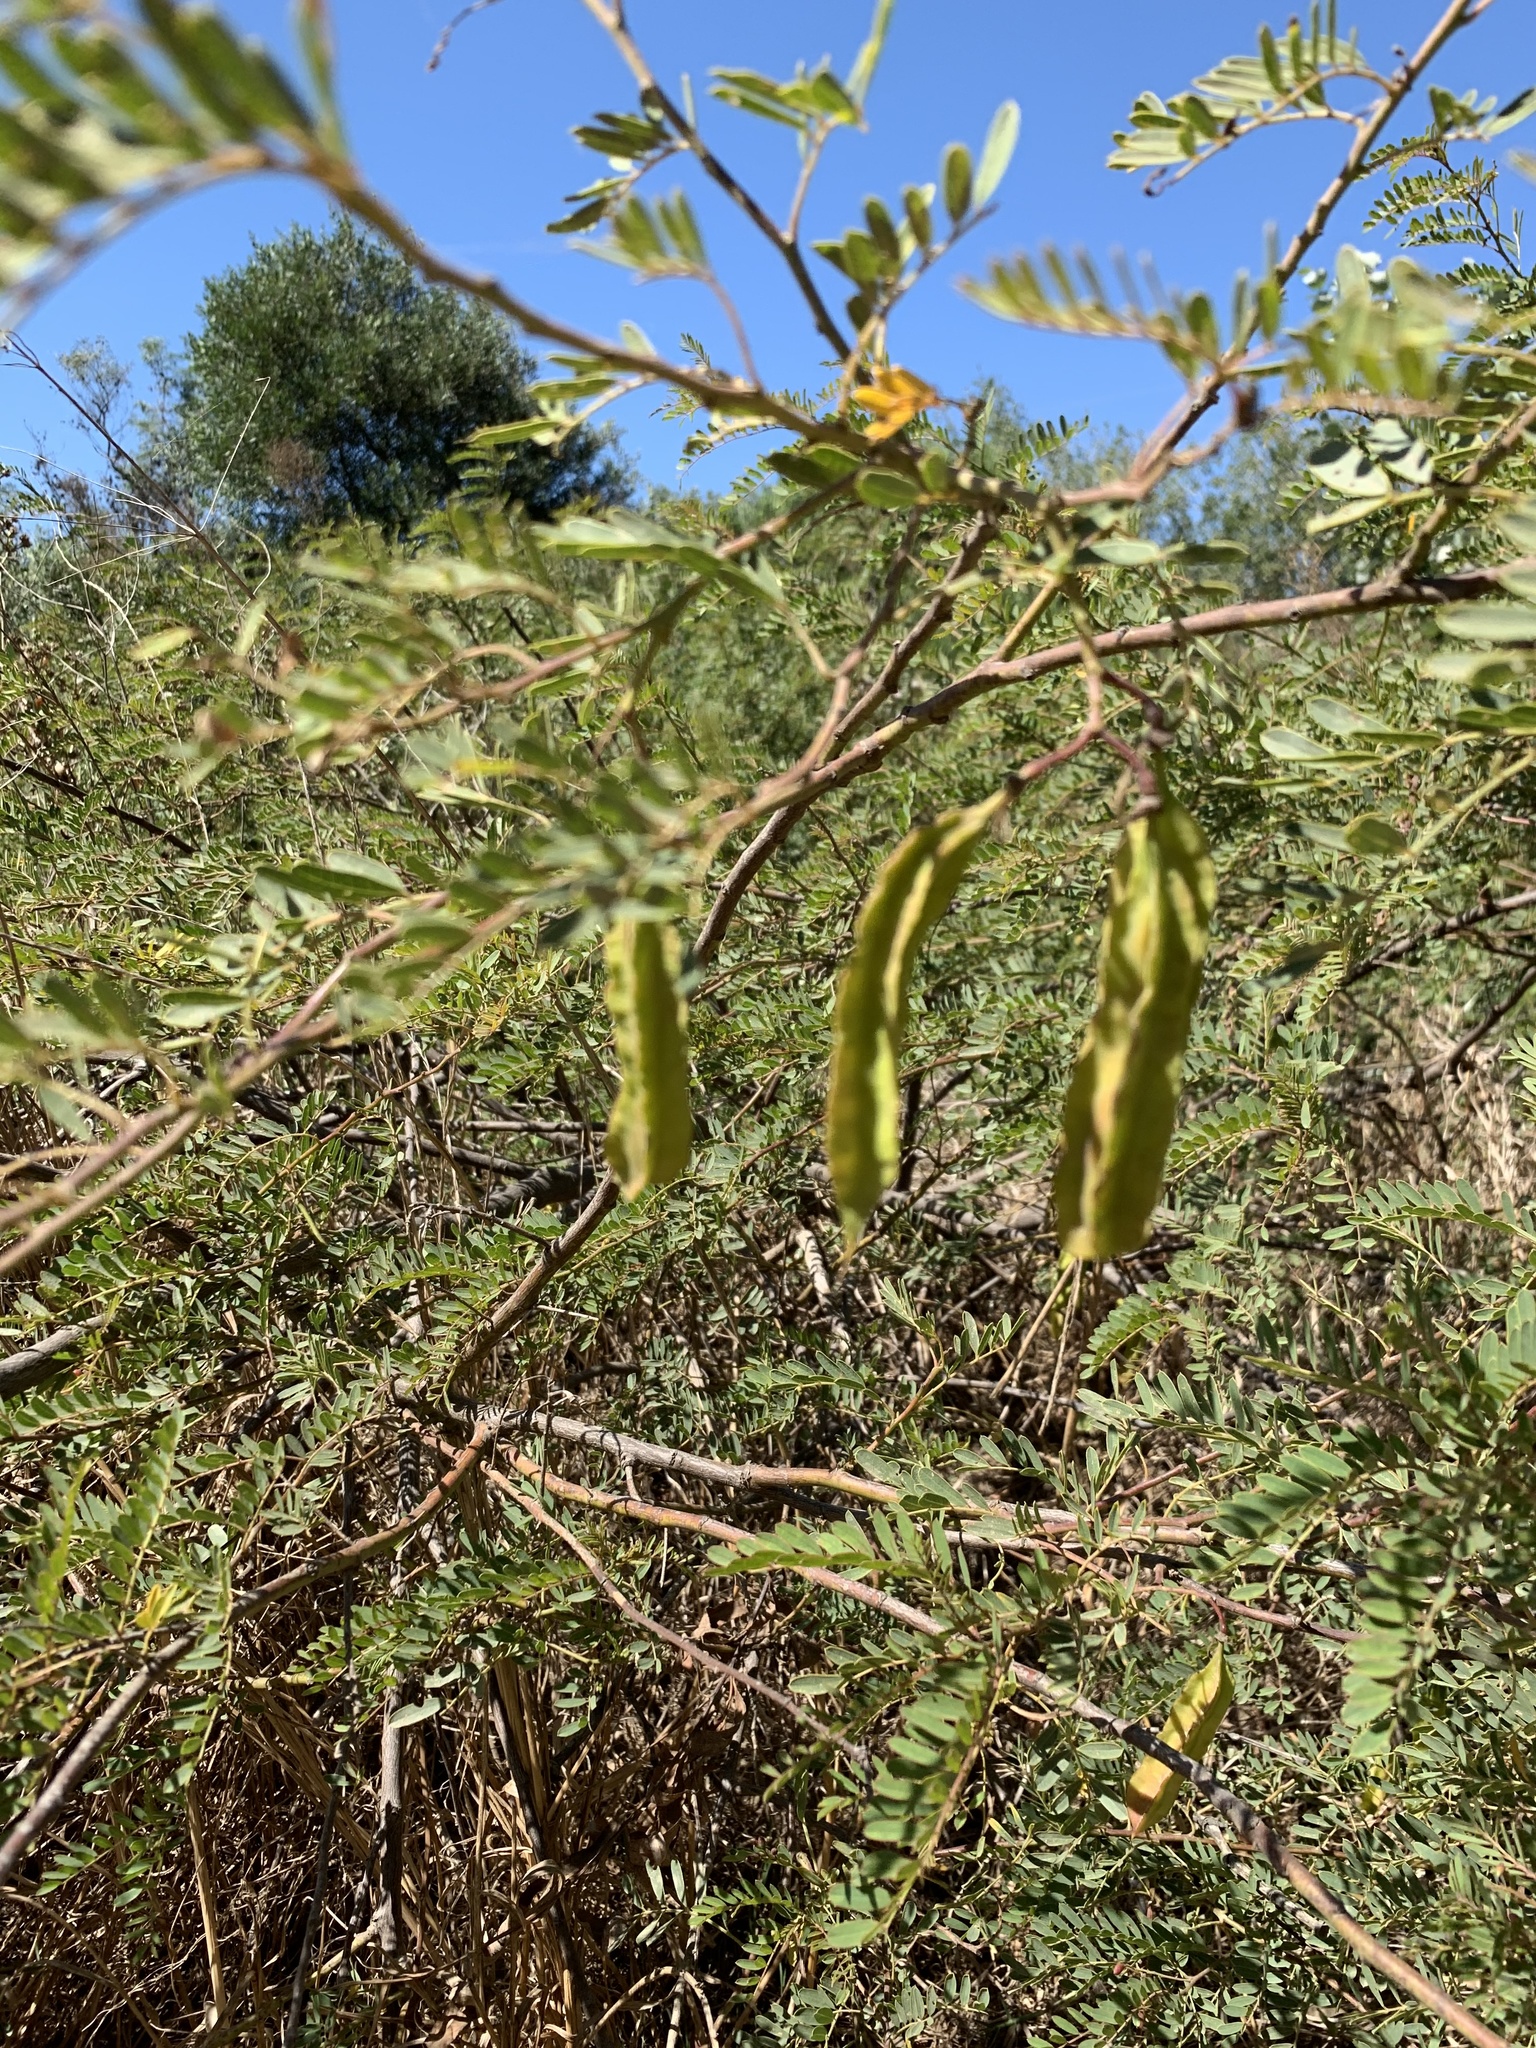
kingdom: Plantae
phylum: Tracheophyta
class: Magnoliopsida
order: Fabales
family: Fabaceae
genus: Sesbania
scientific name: Sesbania punicea
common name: Rattlebox
